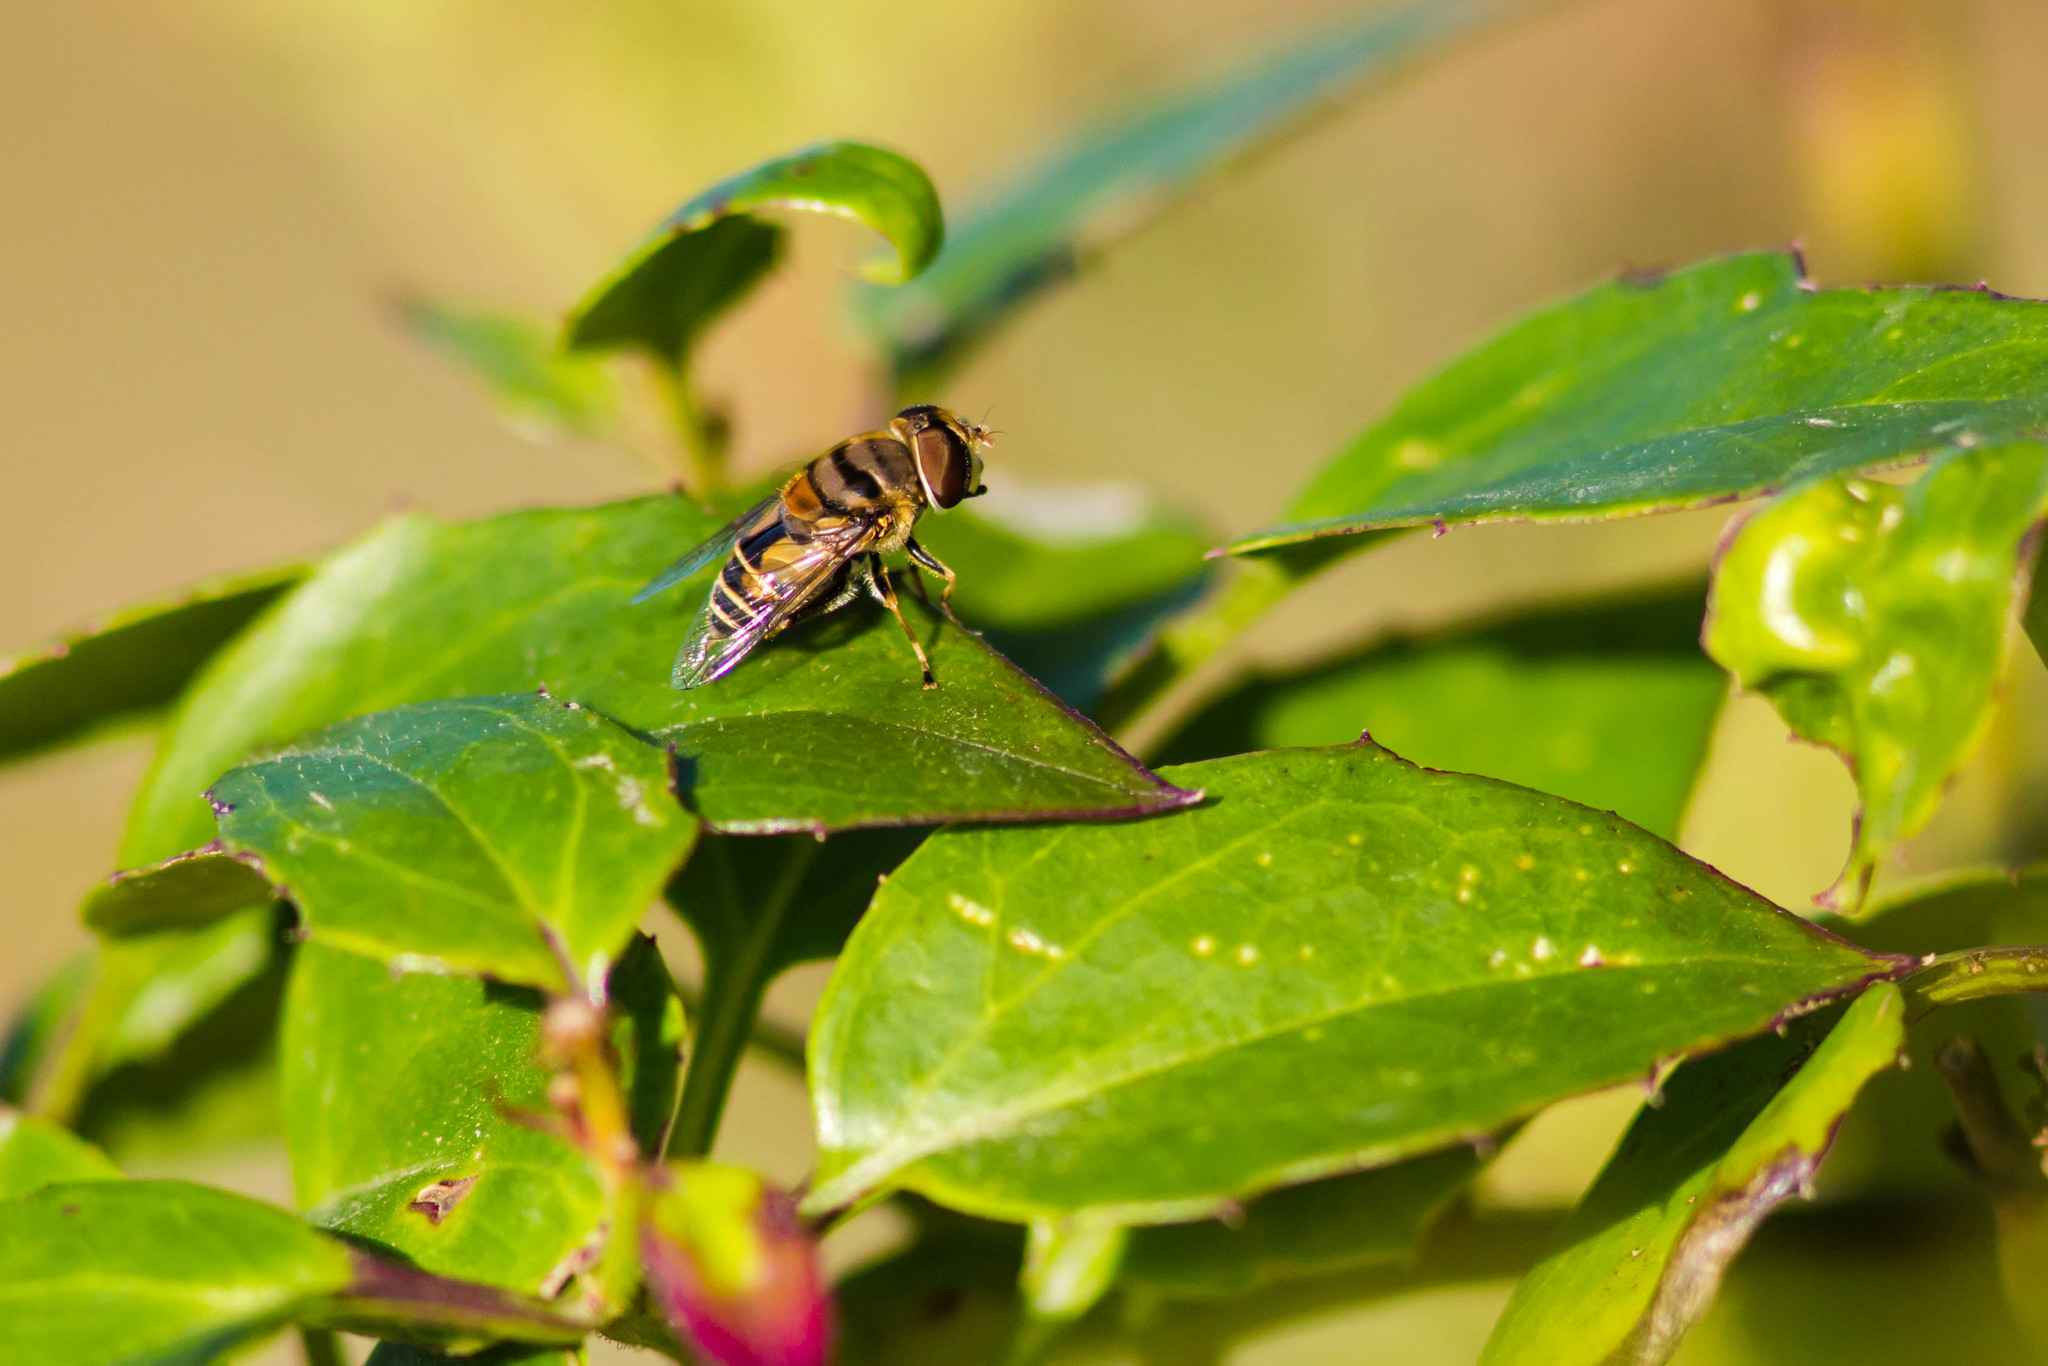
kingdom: Animalia
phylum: Arthropoda
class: Insecta
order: Diptera
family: Syrphidae
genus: Palpada
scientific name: Palpada vinetorum
